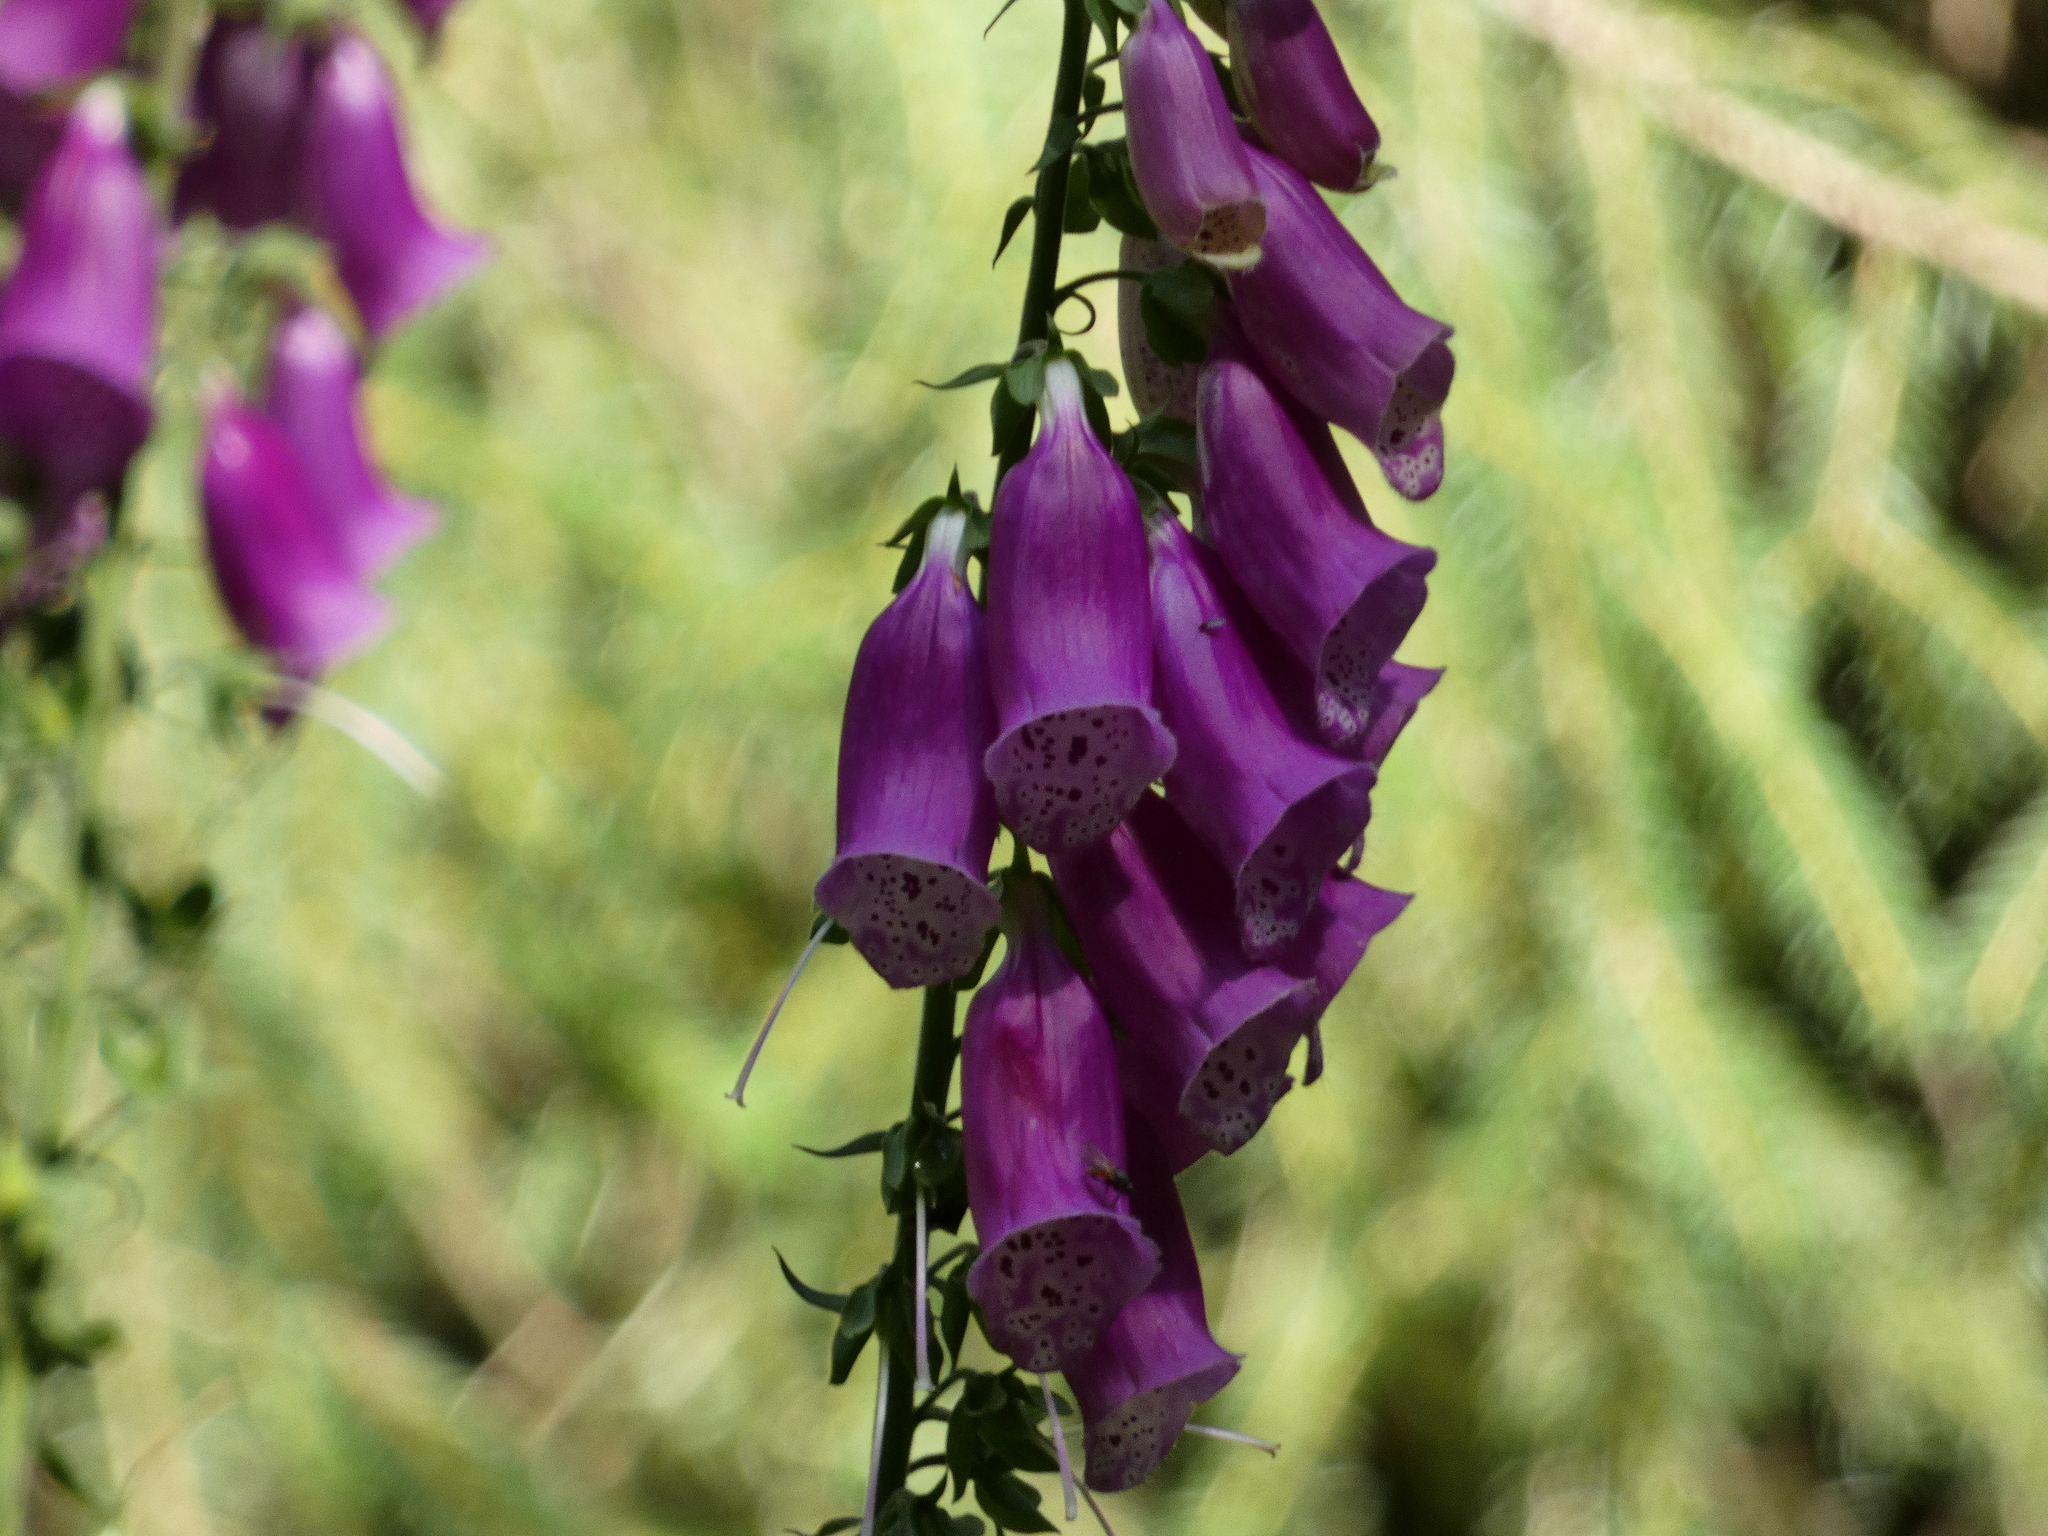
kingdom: Plantae
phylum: Tracheophyta
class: Magnoliopsida
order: Lamiales
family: Plantaginaceae
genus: Digitalis
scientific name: Digitalis purpurea
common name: Foxglove
